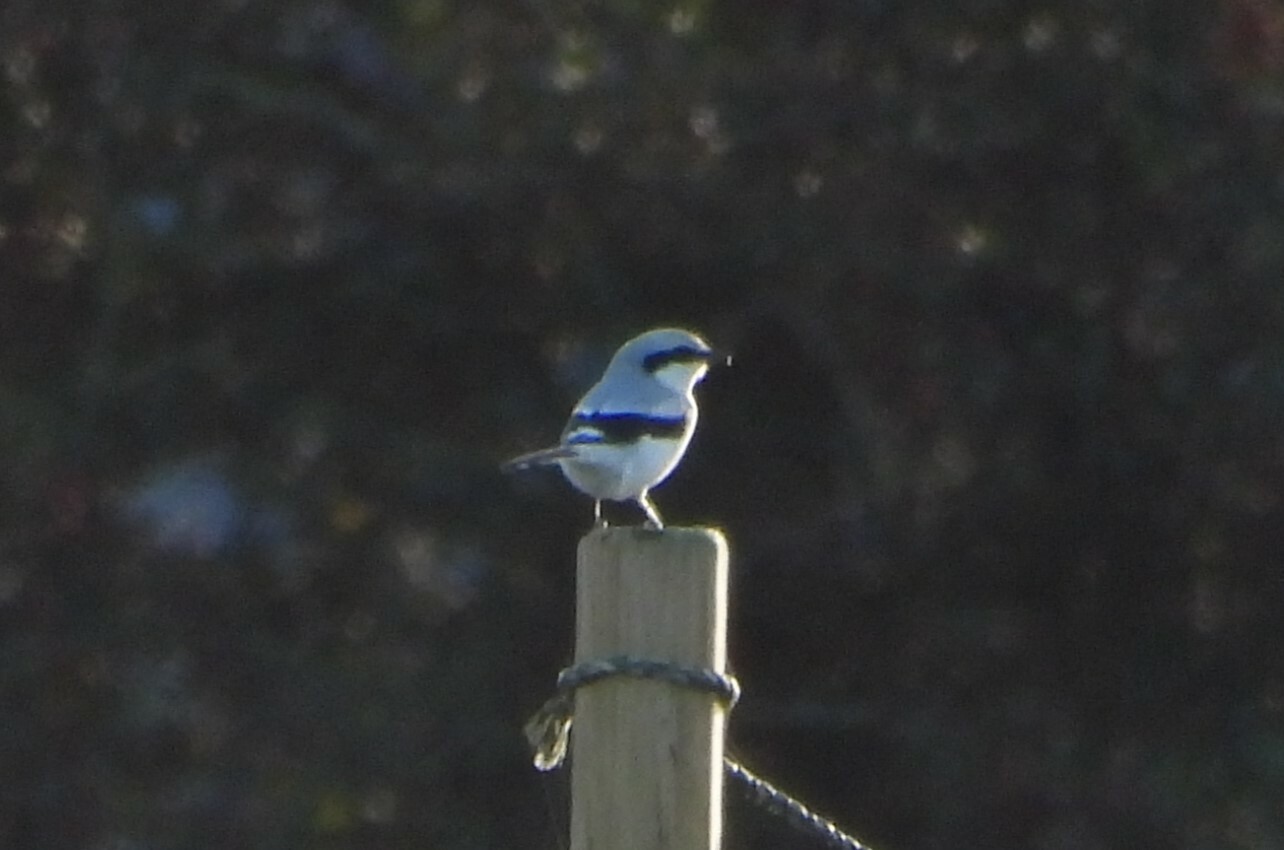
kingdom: Animalia
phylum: Chordata
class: Aves
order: Passeriformes
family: Laniidae
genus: Lanius
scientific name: Lanius excubitor
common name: Great grey shrike
